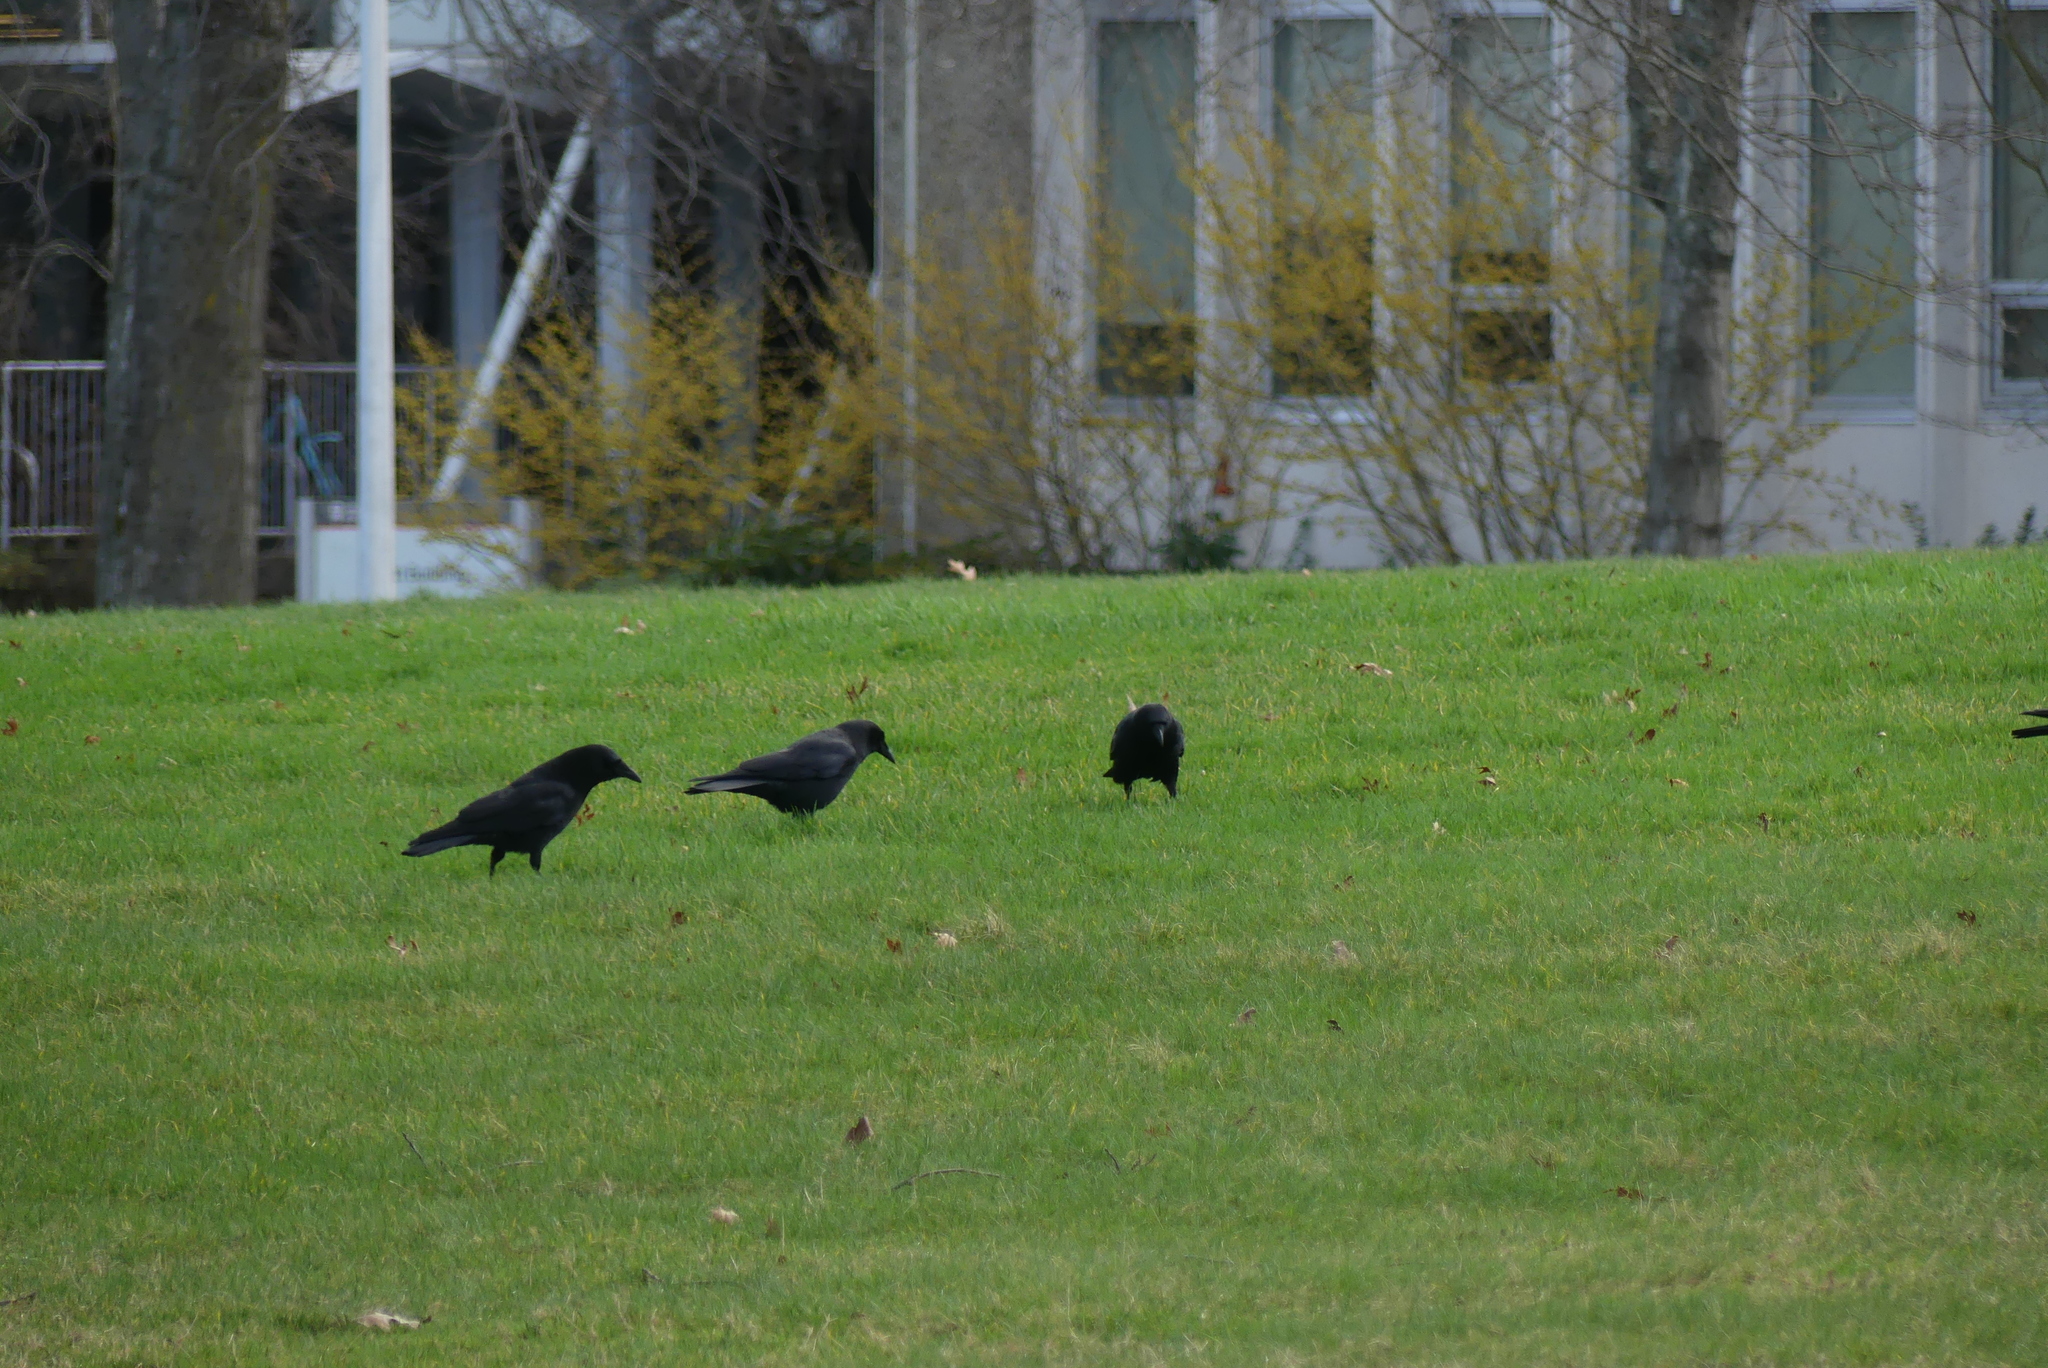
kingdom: Animalia
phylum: Chordata
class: Aves
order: Passeriformes
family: Corvidae
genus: Corvus
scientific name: Corvus brachyrhynchos
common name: American crow
